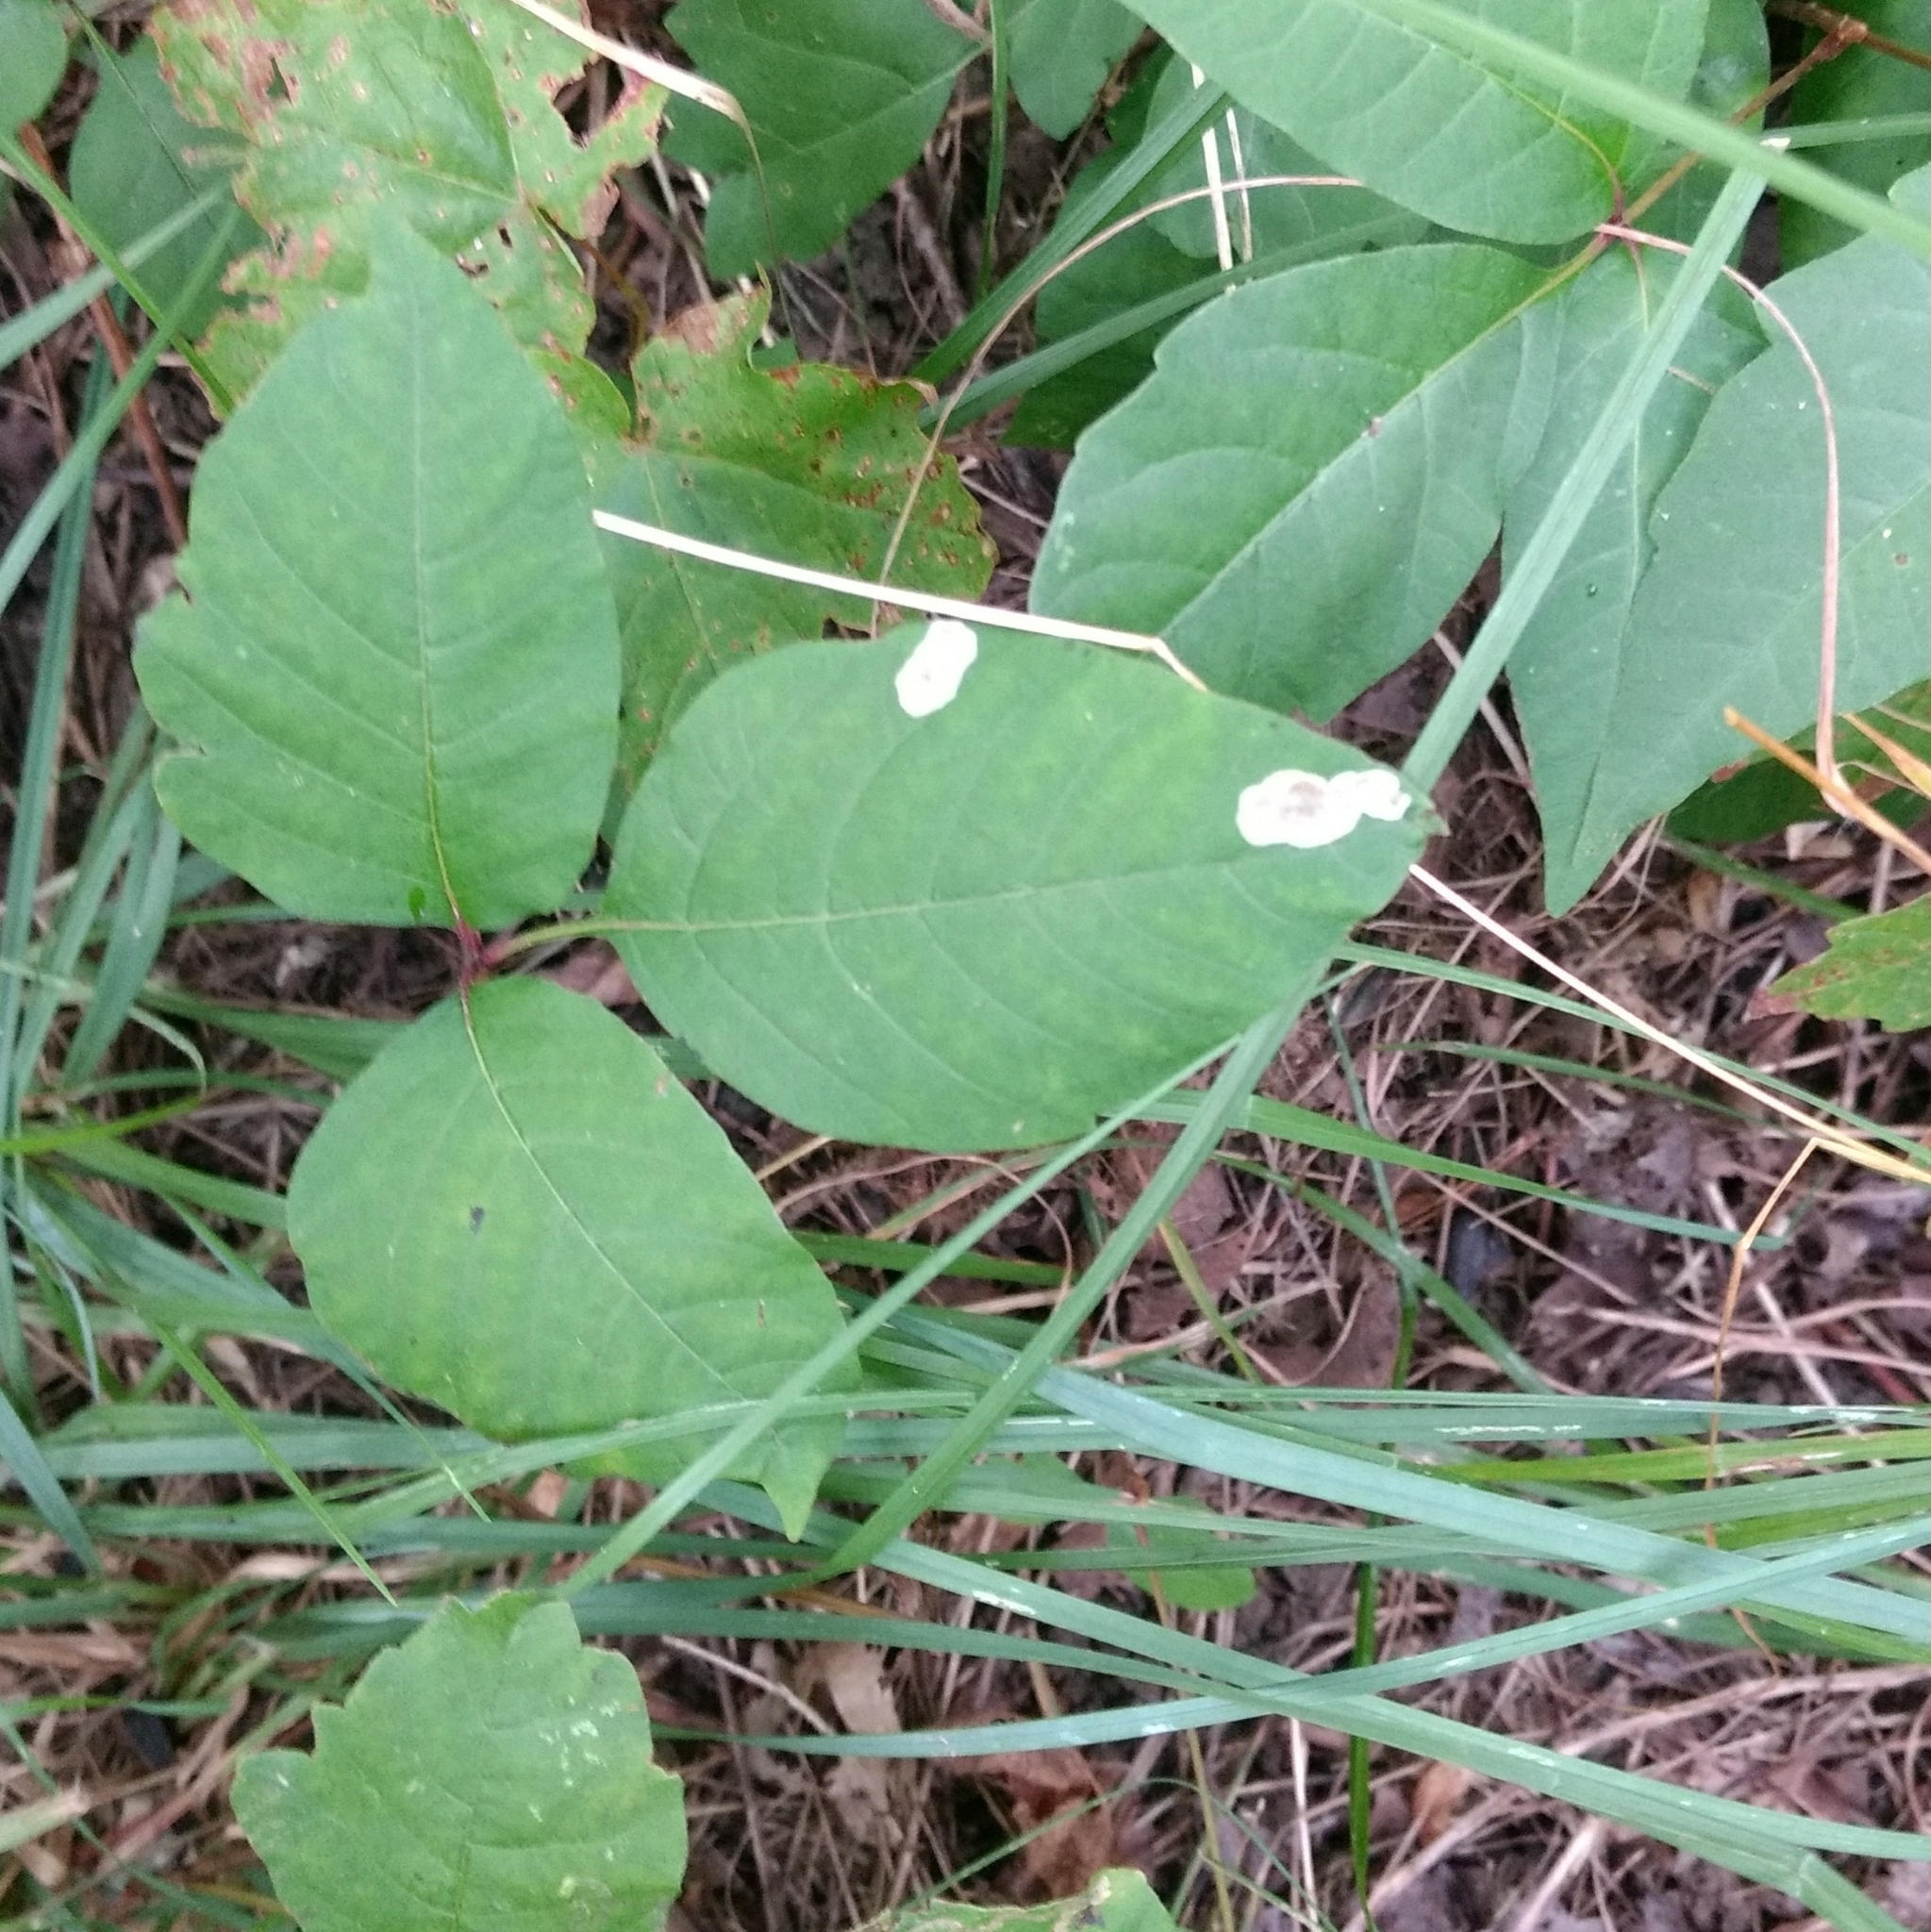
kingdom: Animalia
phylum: Arthropoda
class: Insecta
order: Lepidoptera
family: Gracillariidae
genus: Cameraria
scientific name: Cameraria guttifinitella
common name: Poison ivy leaf-miner moth
